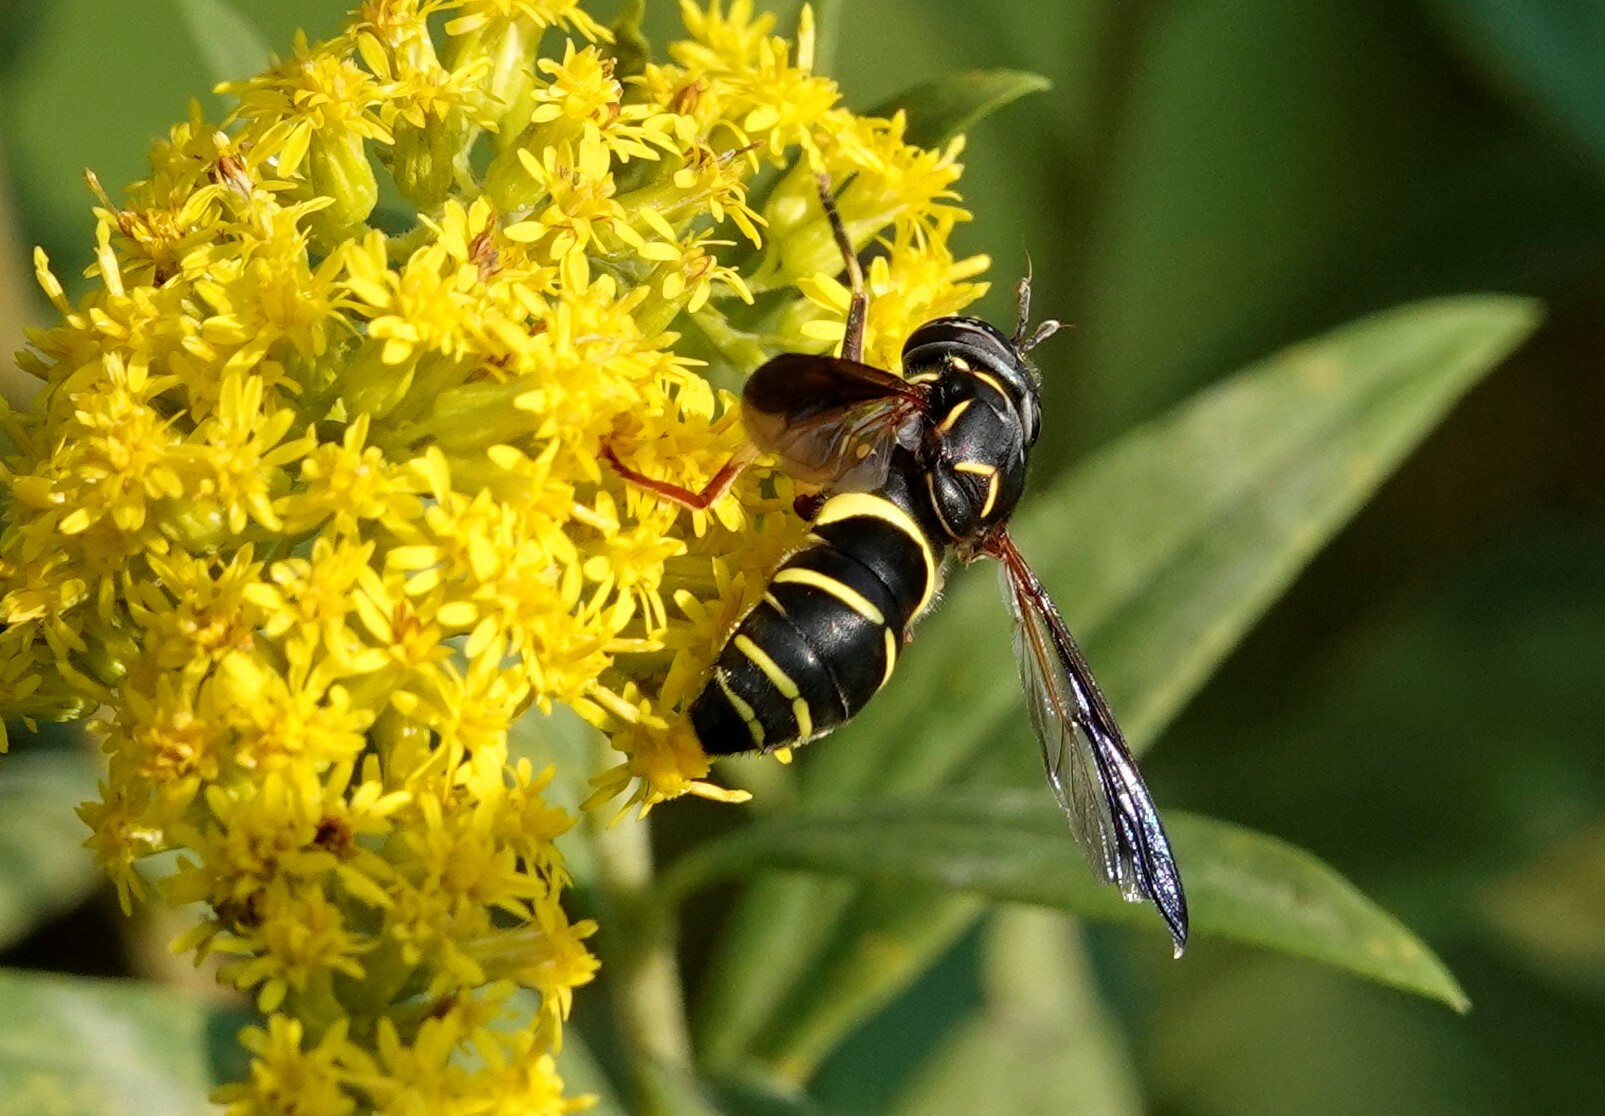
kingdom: Animalia
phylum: Arthropoda
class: Insecta
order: Diptera
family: Syrphidae
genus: Spilomyia
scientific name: Spilomyia sayi
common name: Four-lined hornet fly
